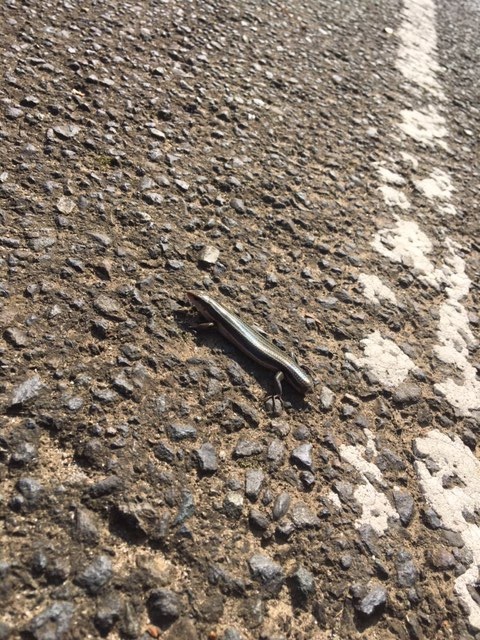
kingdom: Animalia
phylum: Chordata
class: Squamata
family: Scincidae
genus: Plestiodon
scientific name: Plestiodon finitimus
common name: Far eastern skink
